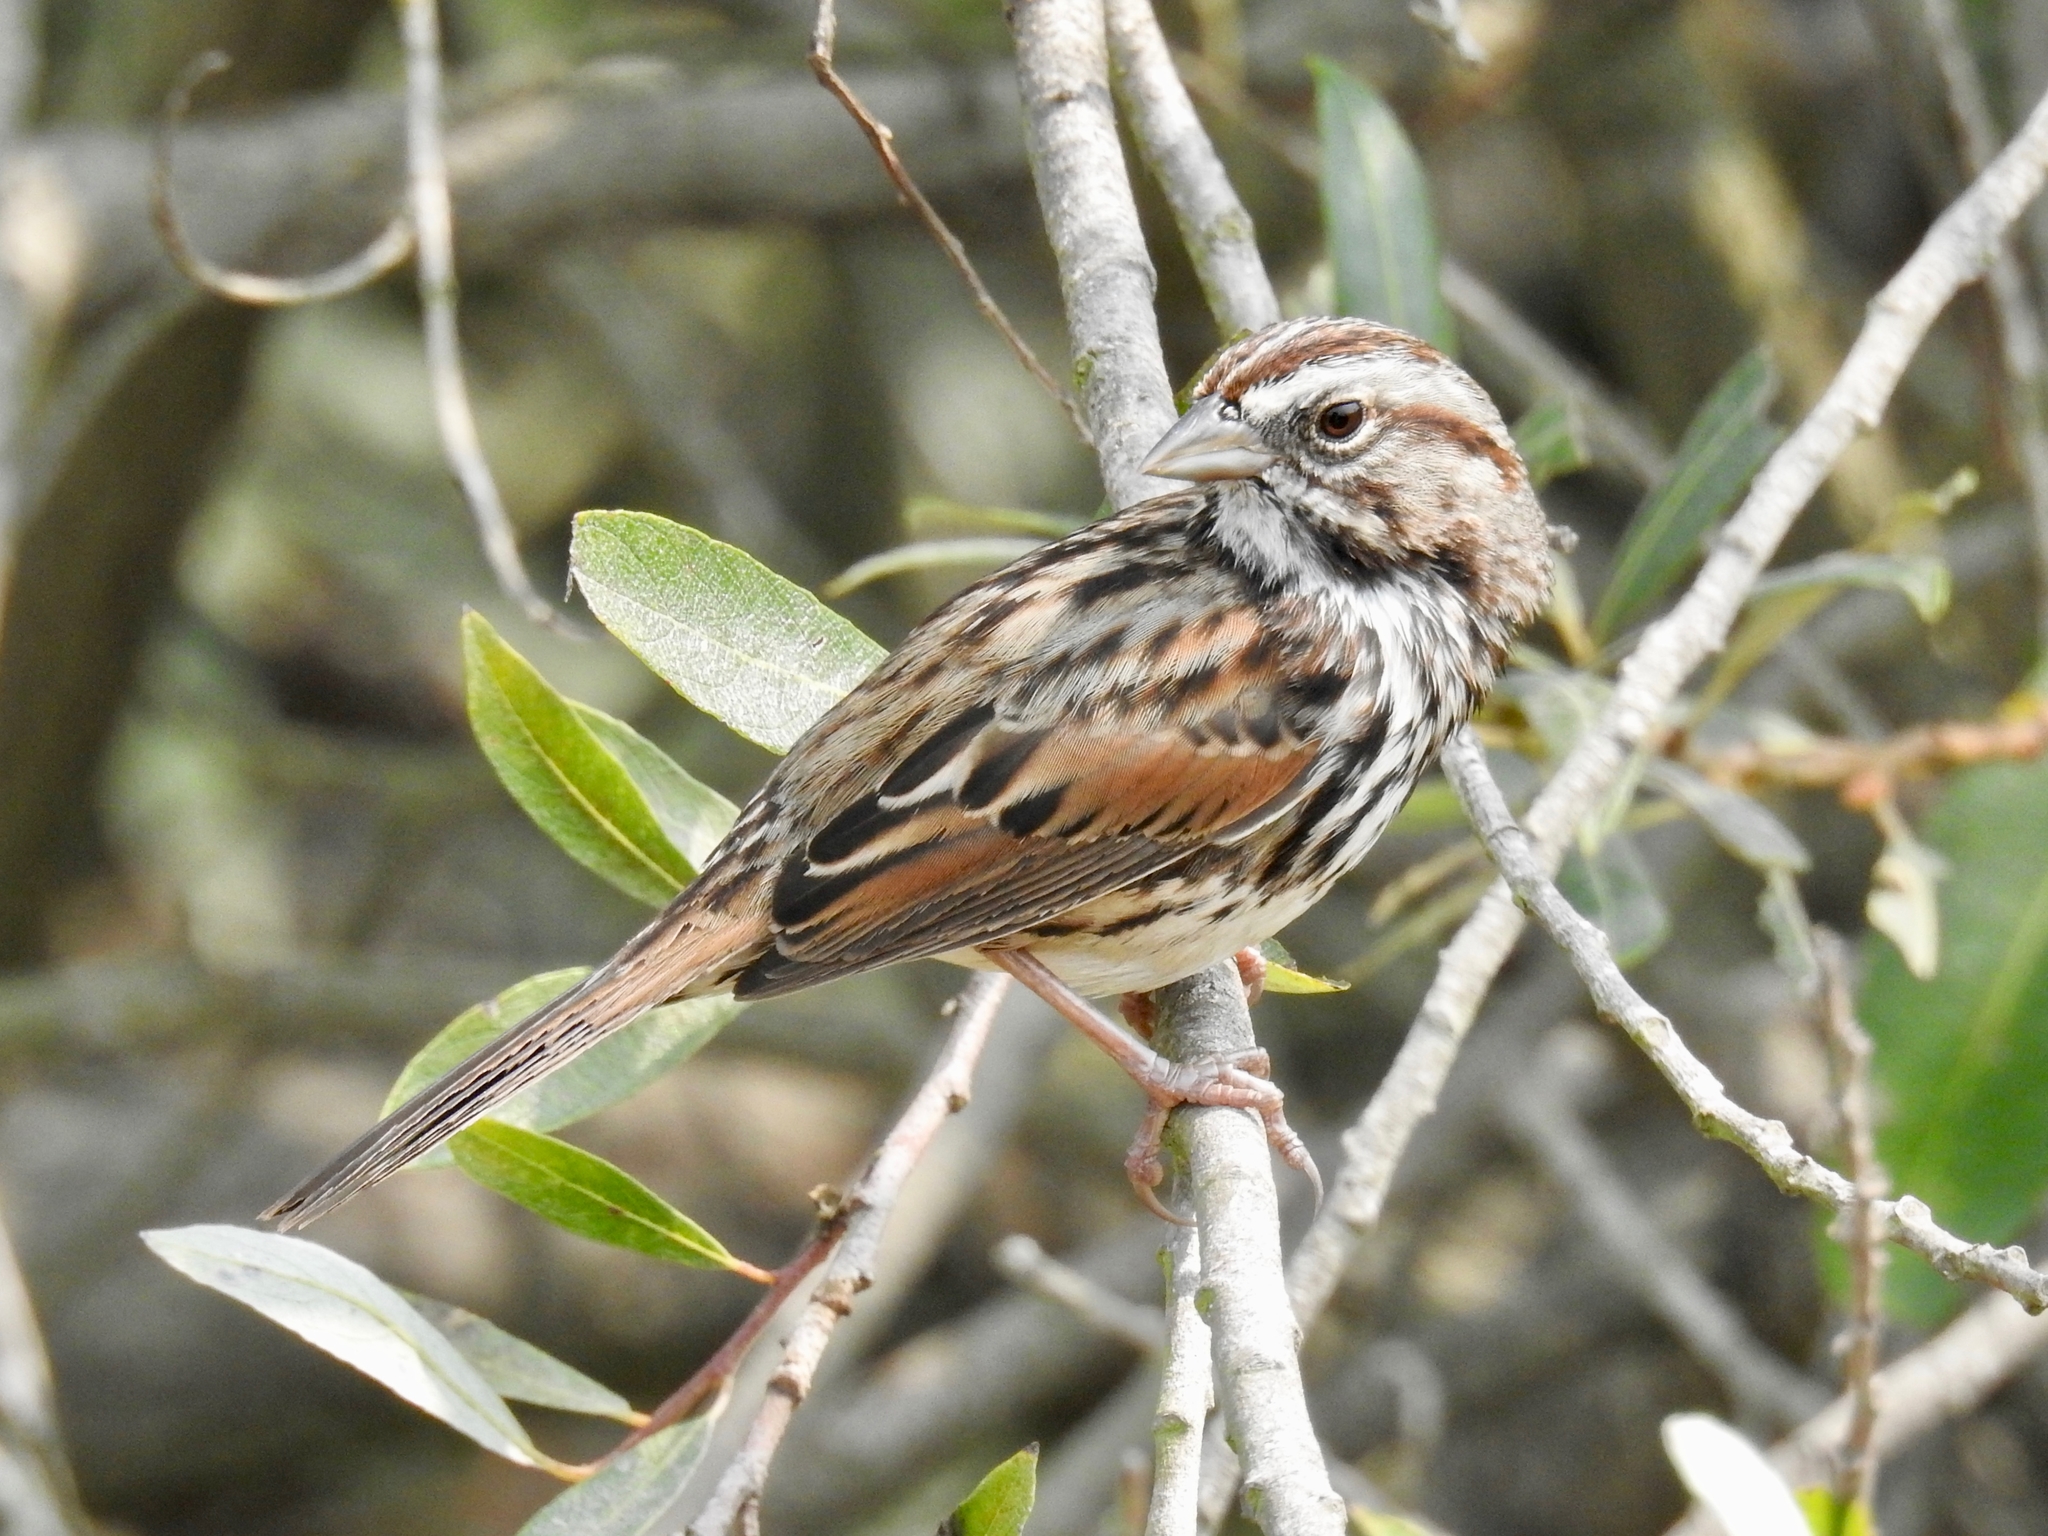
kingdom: Animalia
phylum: Chordata
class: Aves
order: Passeriformes
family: Passerellidae
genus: Melospiza
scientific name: Melospiza melodia
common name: Song sparrow
